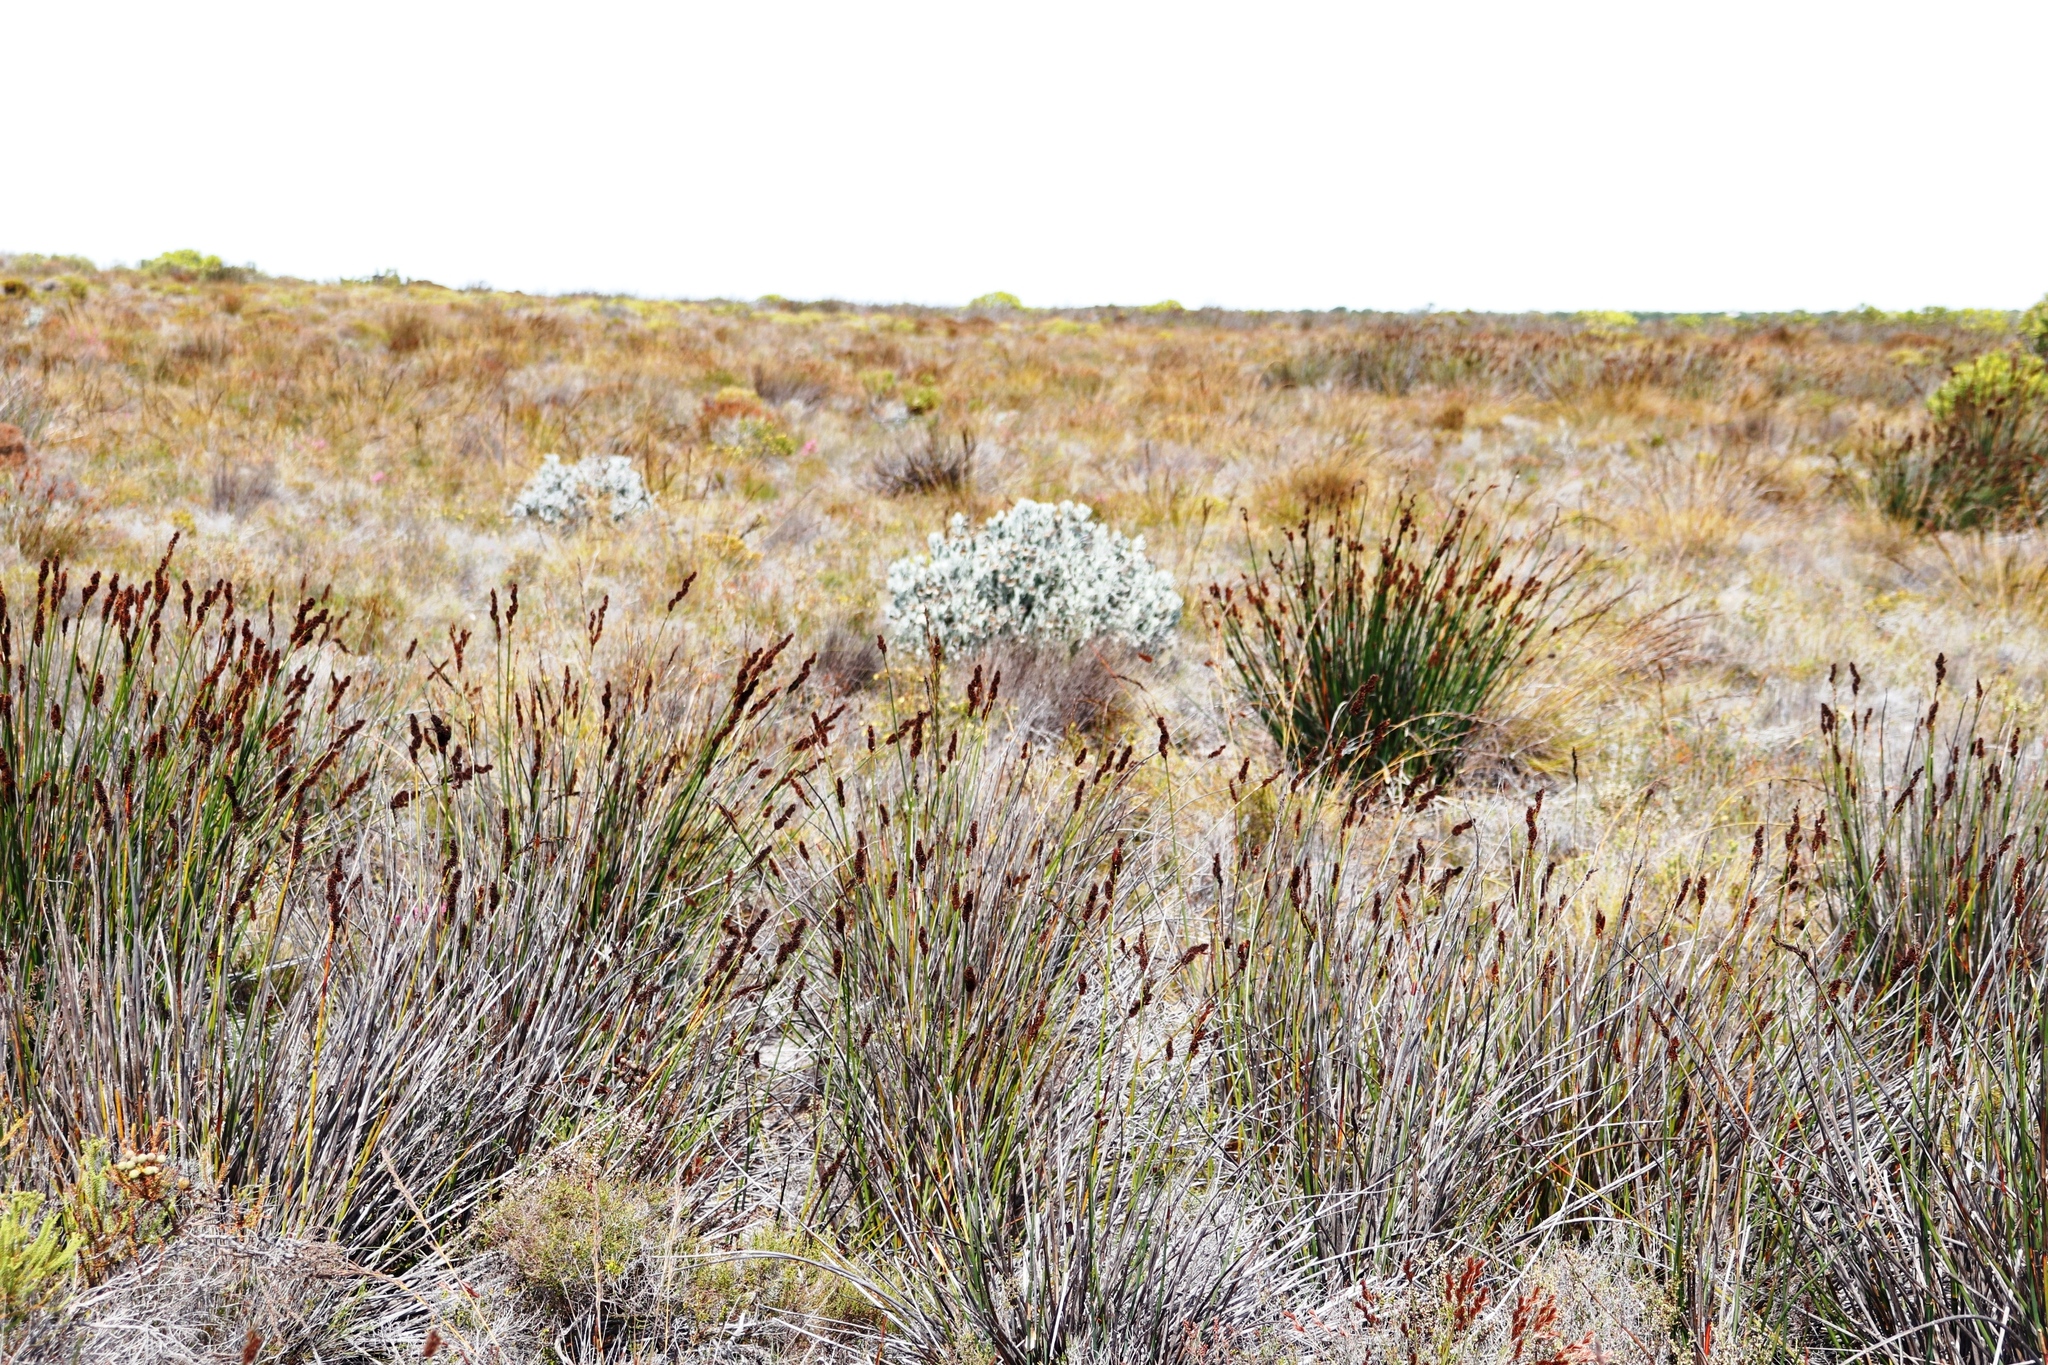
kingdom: Plantae
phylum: Tracheophyta
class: Liliopsida
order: Poales
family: Restionaceae
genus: Elegia
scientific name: Elegia cuspidata
